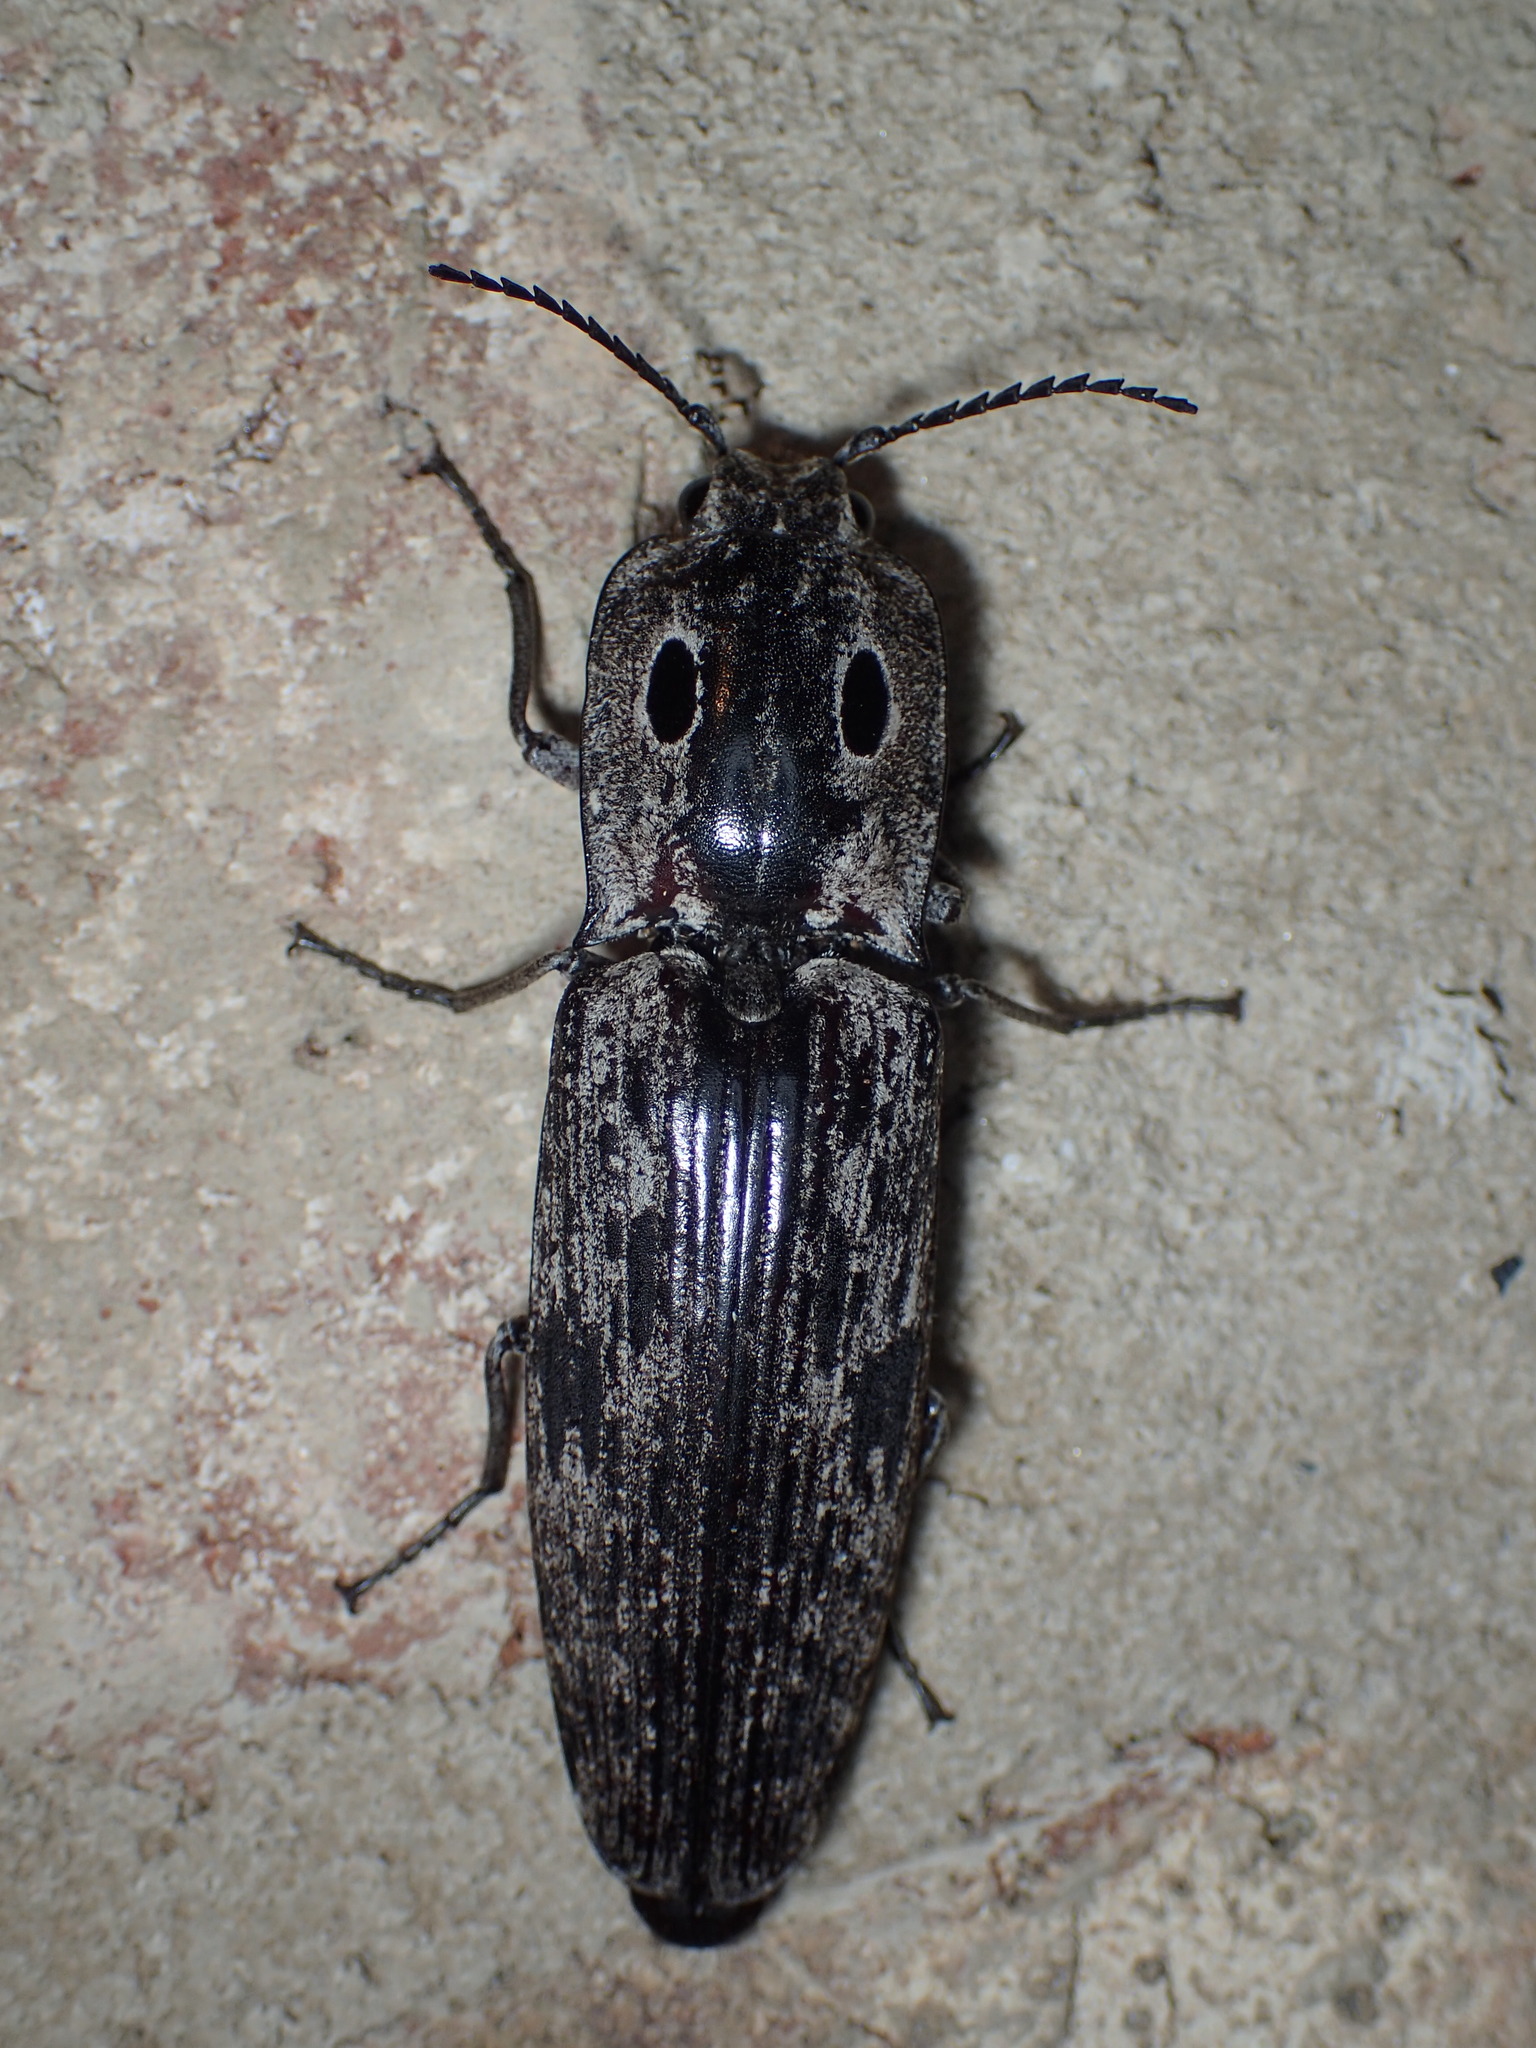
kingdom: Animalia
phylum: Arthropoda
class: Insecta
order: Coleoptera
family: Elateridae
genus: Alaus
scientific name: Alaus myops
